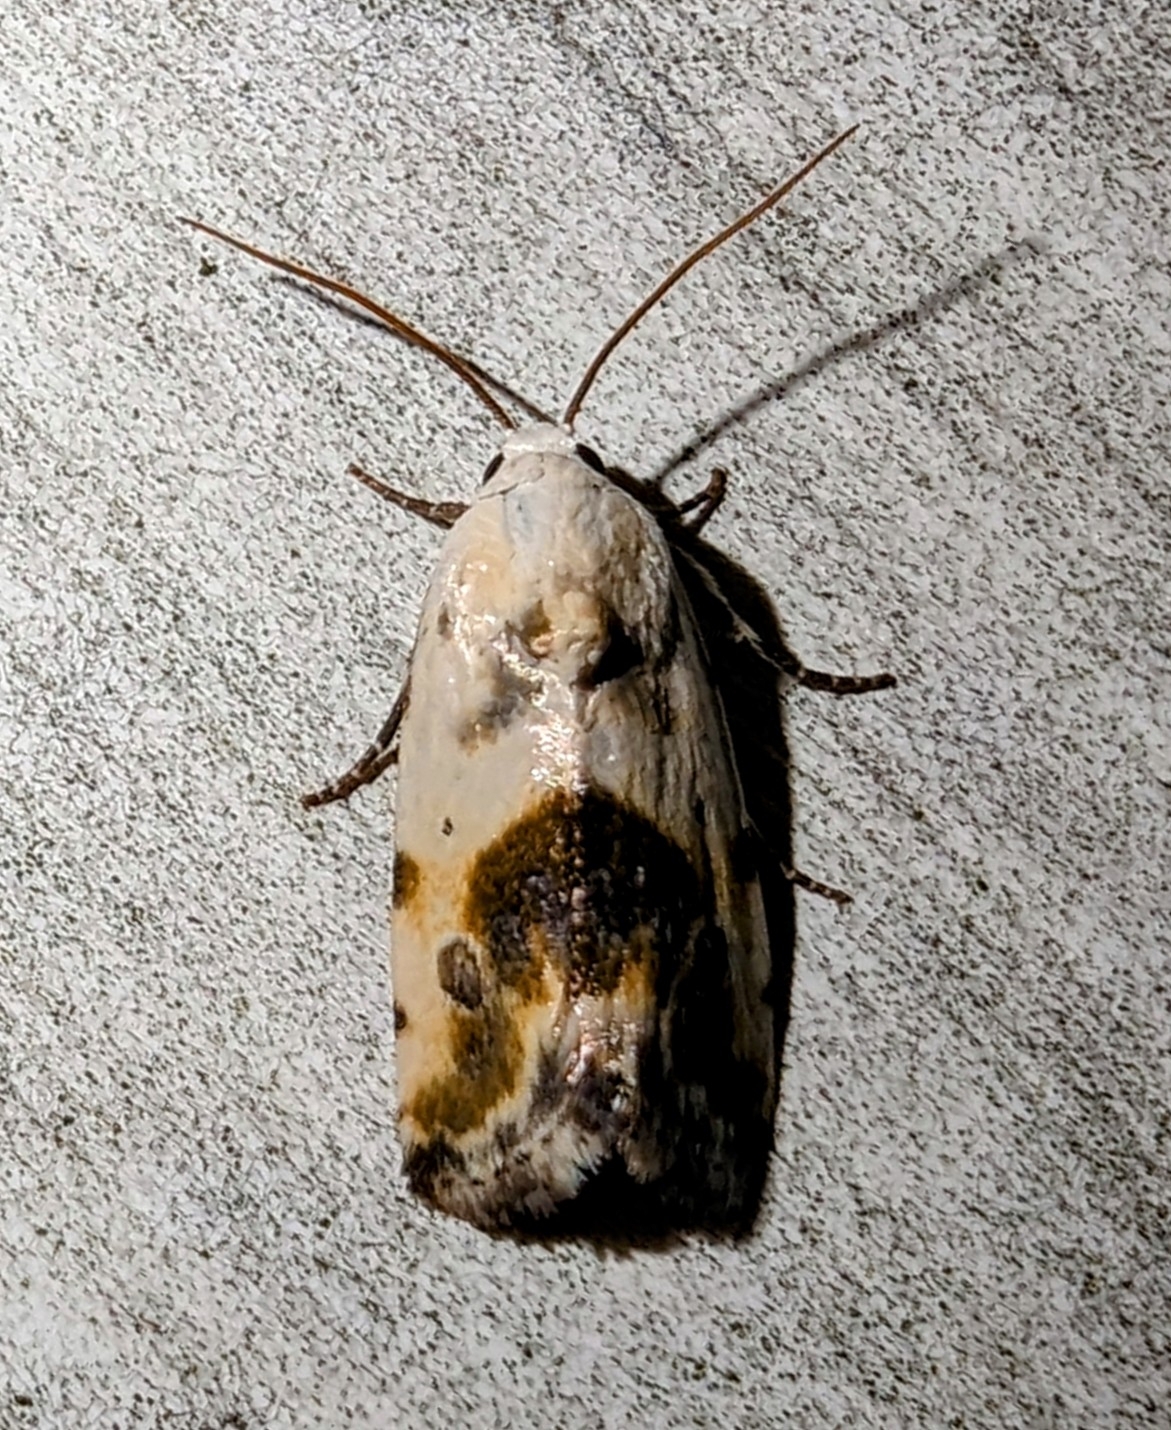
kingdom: Animalia
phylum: Arthropoda
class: Insecta
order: Lepidoptera
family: Noctuidae
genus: Acontia
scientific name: Acontia candefacta
